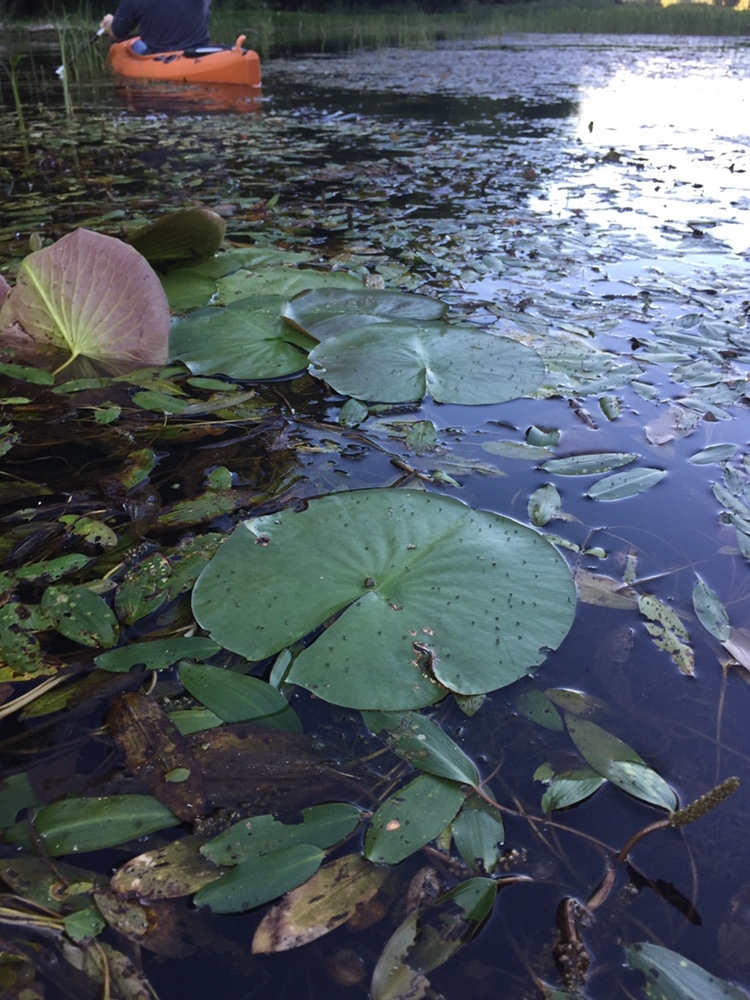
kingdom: Plantae
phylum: Tracheophyta
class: Magnoliopsida
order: Nymphaeales
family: Nymphaeaceae
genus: Nymphaea
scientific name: Nymphaea odorata
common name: Fragrant water-lily
